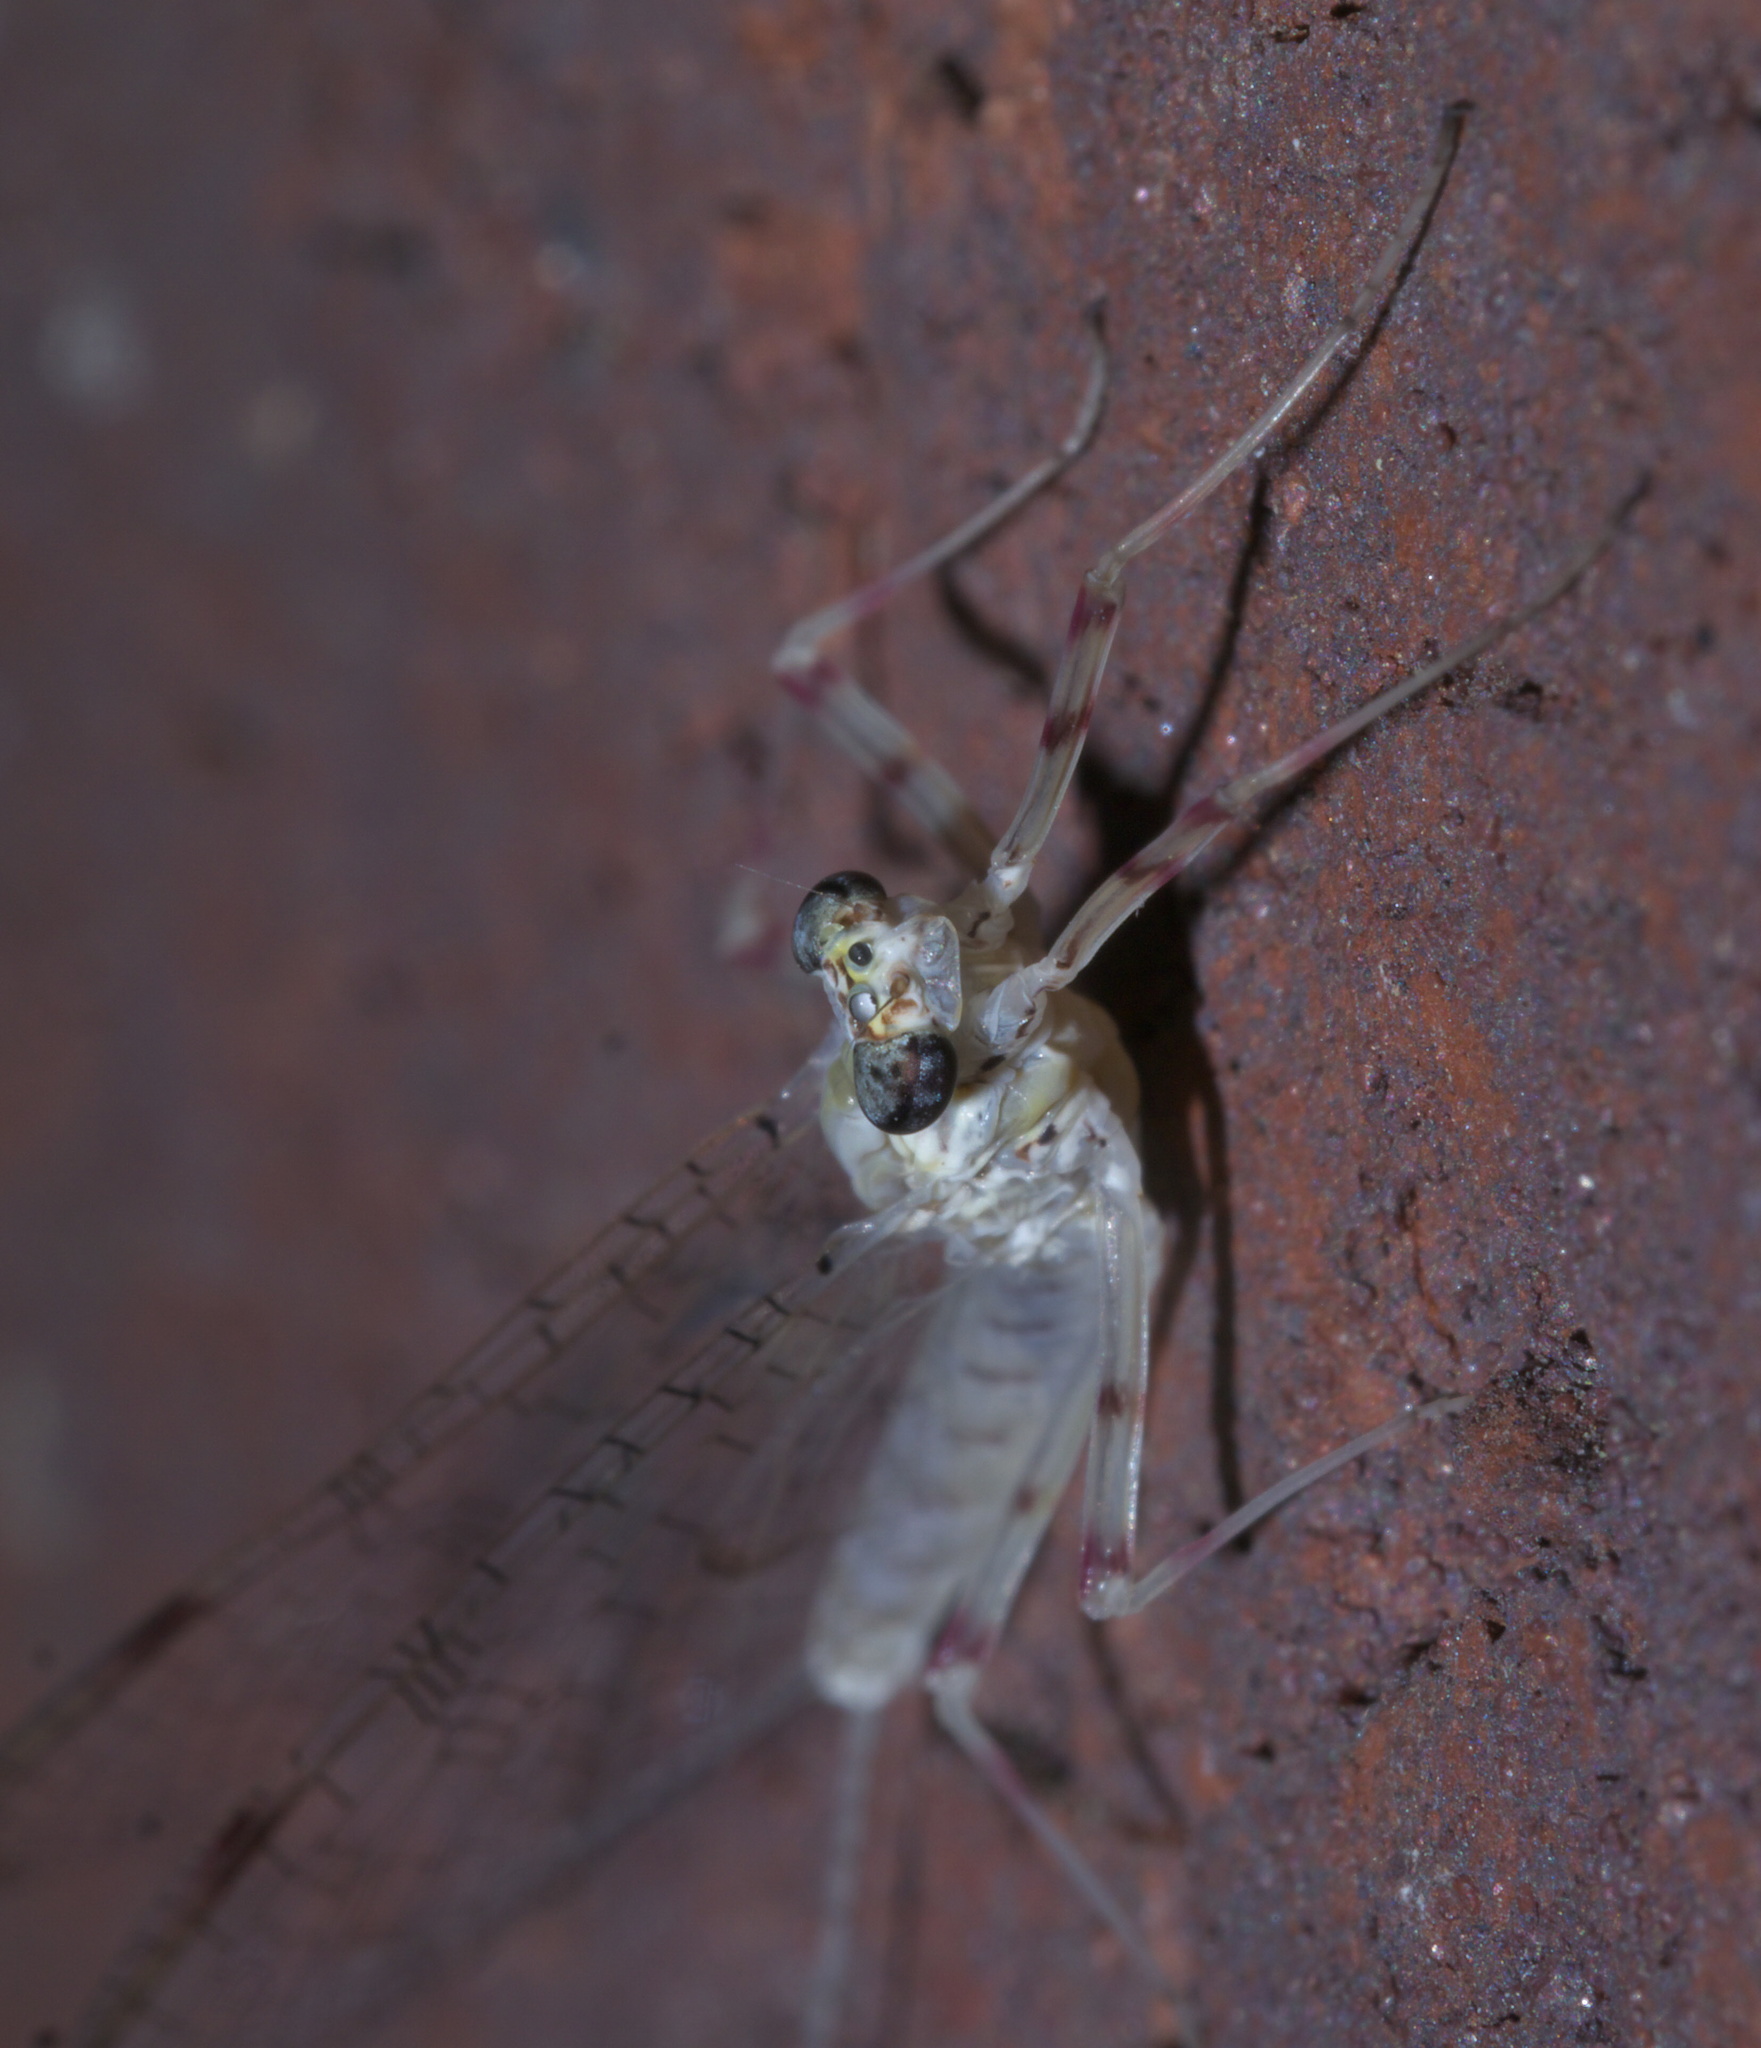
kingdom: Animalia
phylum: Arthropoda
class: Insecta
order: Ephemeroptera
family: Heptageniidae
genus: Stenonema
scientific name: Stenonema femoratum
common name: Dark cahill
